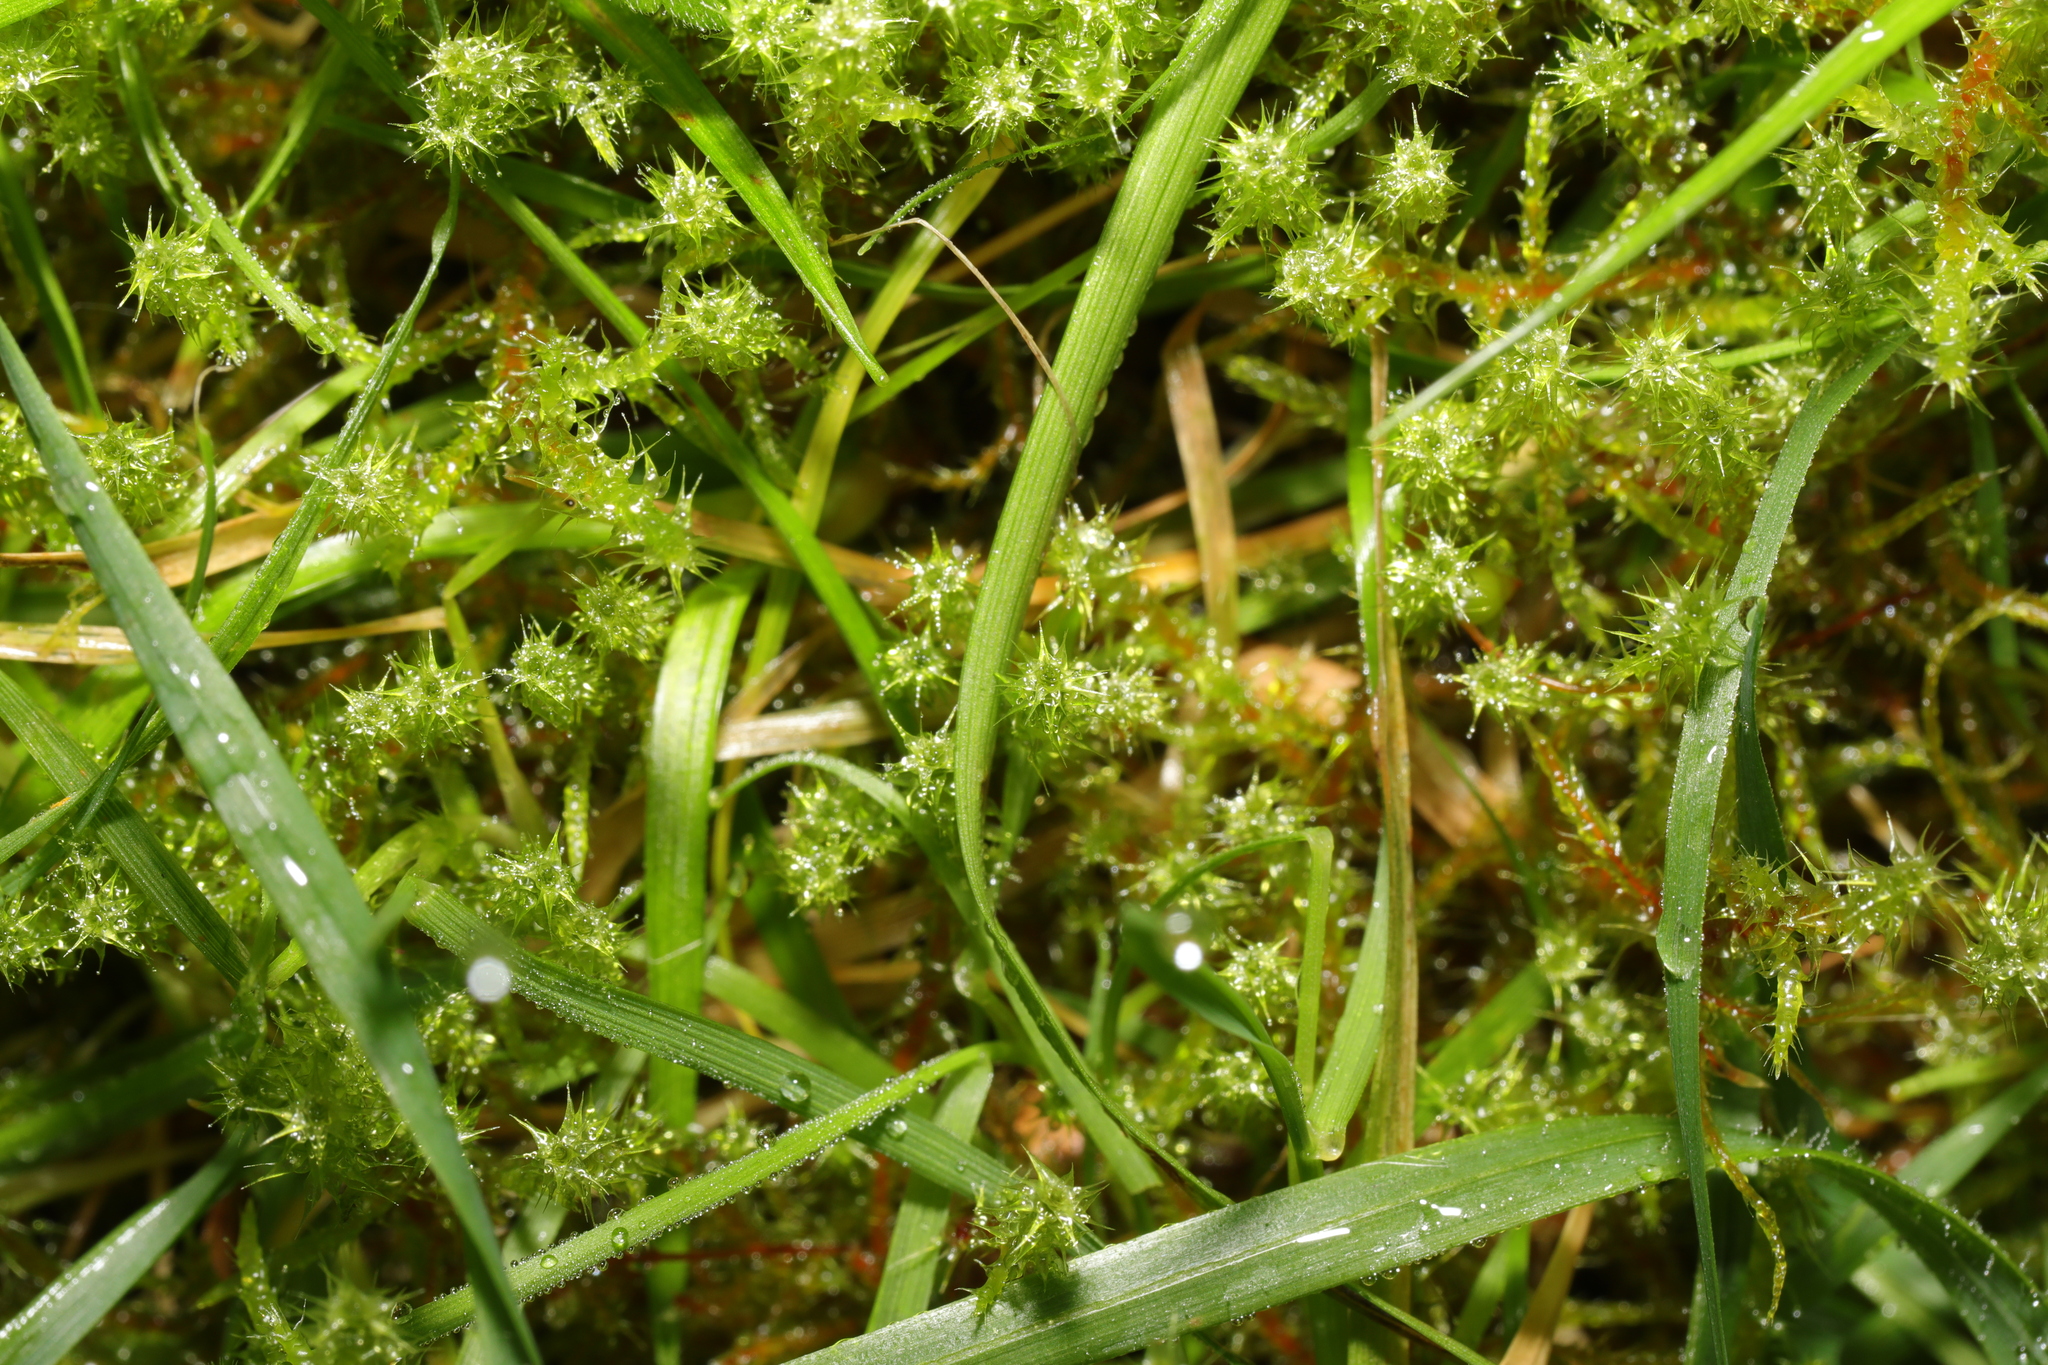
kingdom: Plantae
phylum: Bryophyta
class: Bryopsida
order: Hypnales
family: Hylocomiaceae
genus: Rhytidiadelphus
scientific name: Rhytidiadelphus squarrosus
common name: Springy turf-moss
